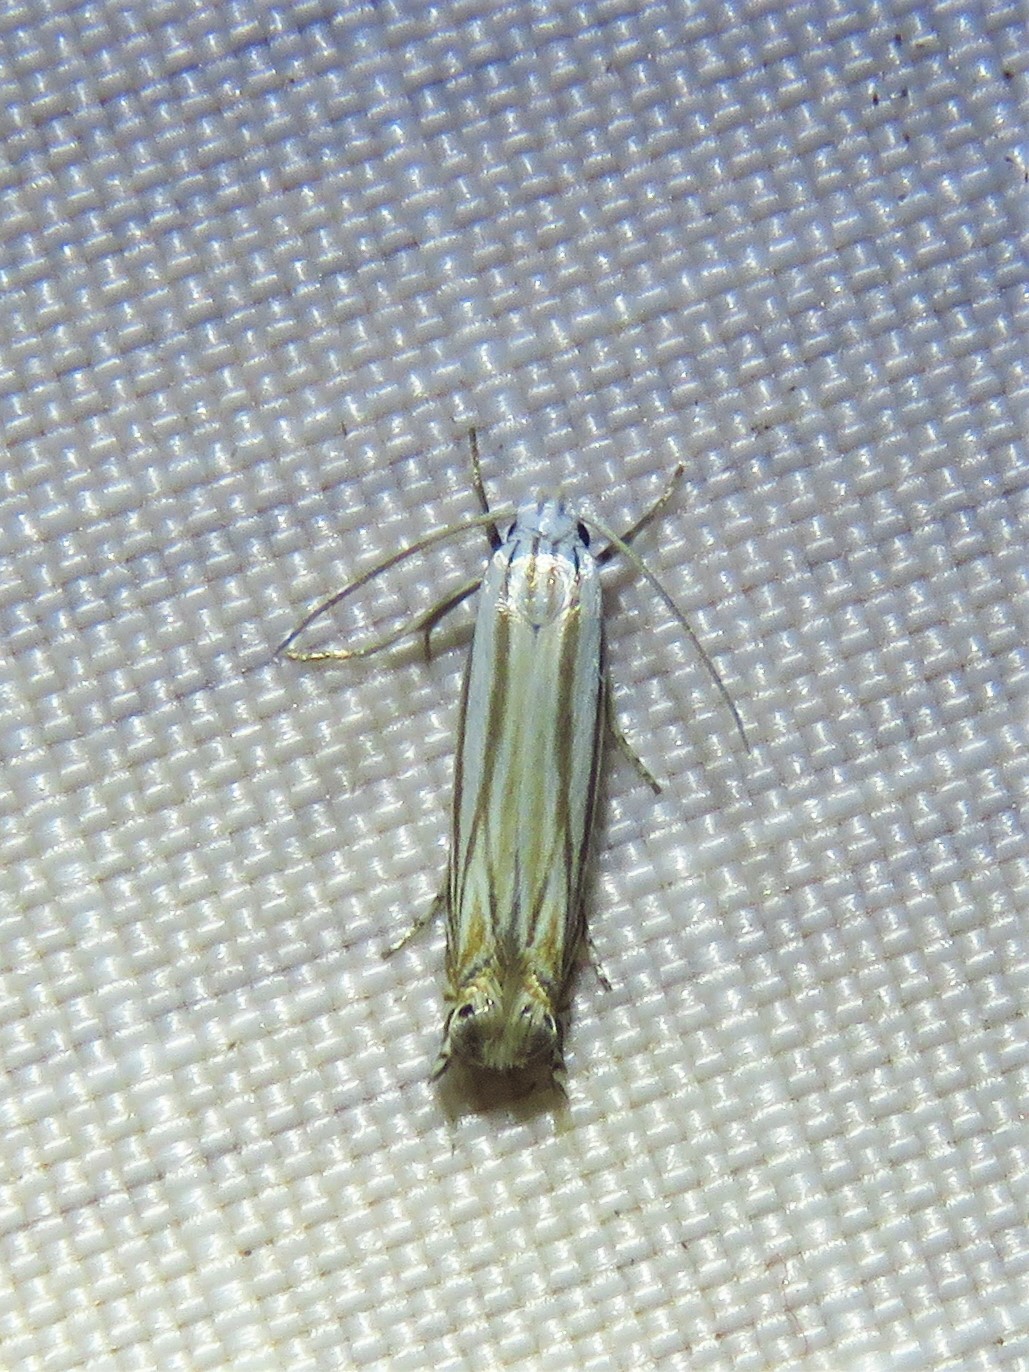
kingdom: Animalia
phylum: Arthropoda
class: Insecta
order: Lepidoptera
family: Gelechiidae
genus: Polyhymno
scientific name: Polyhymno luteostrigella
